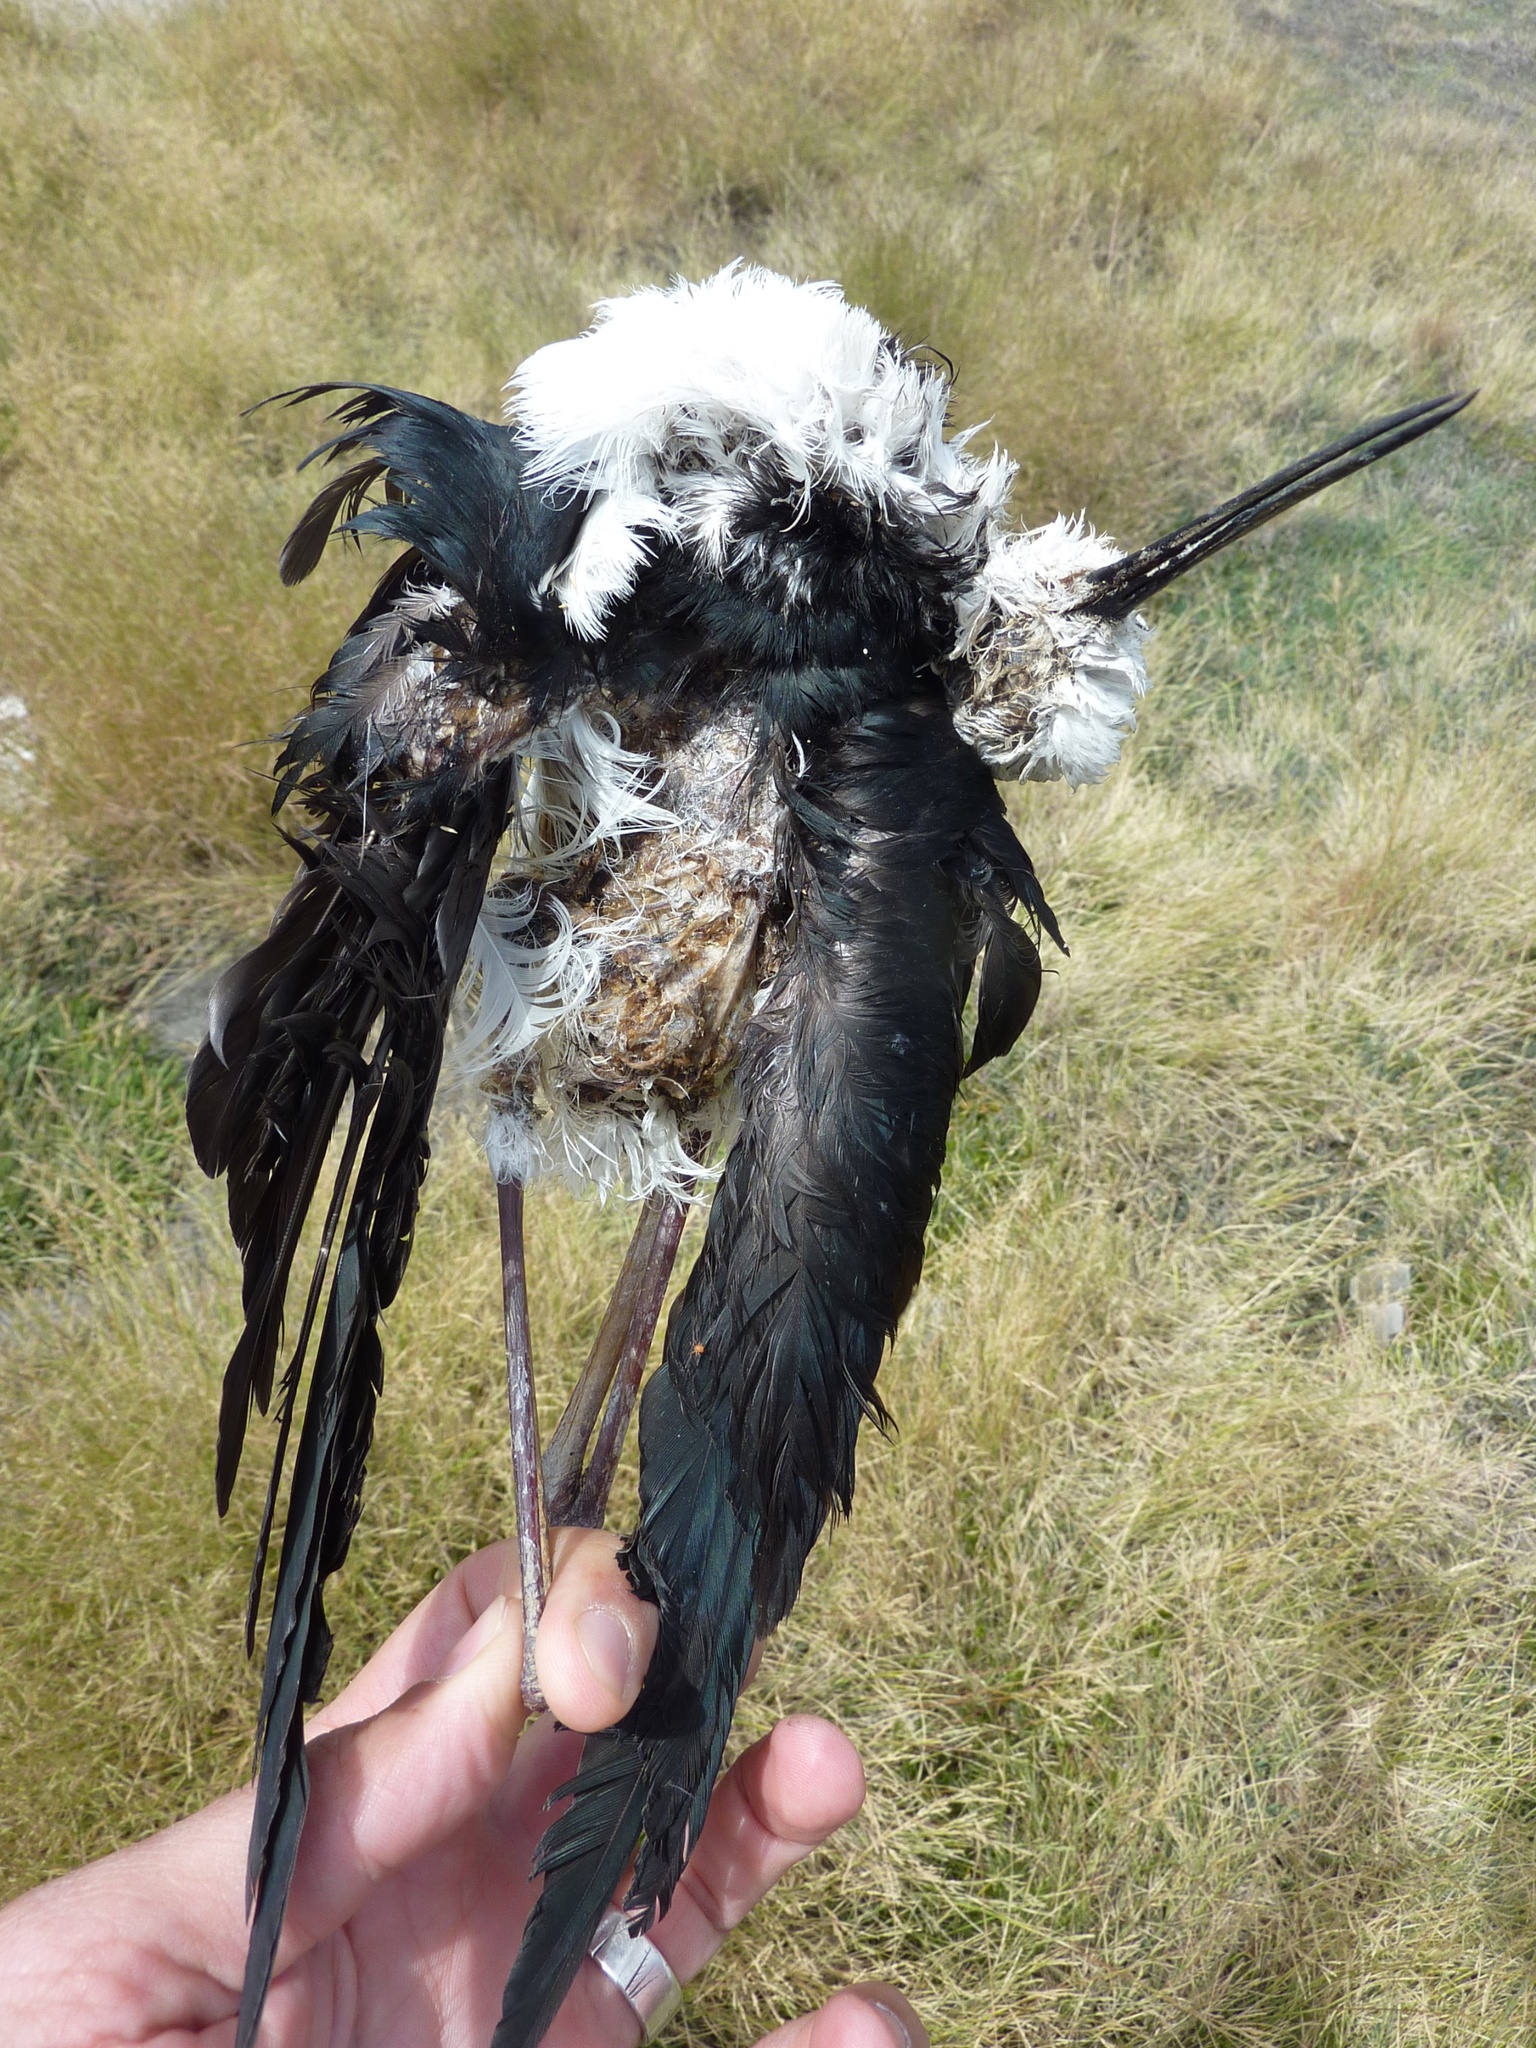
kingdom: Animalia
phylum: Chordata
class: Aves
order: Charadriiformes
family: Recurvirostridae
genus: Himantopus
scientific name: Himantopus leucocephalus
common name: White-headed stilt
